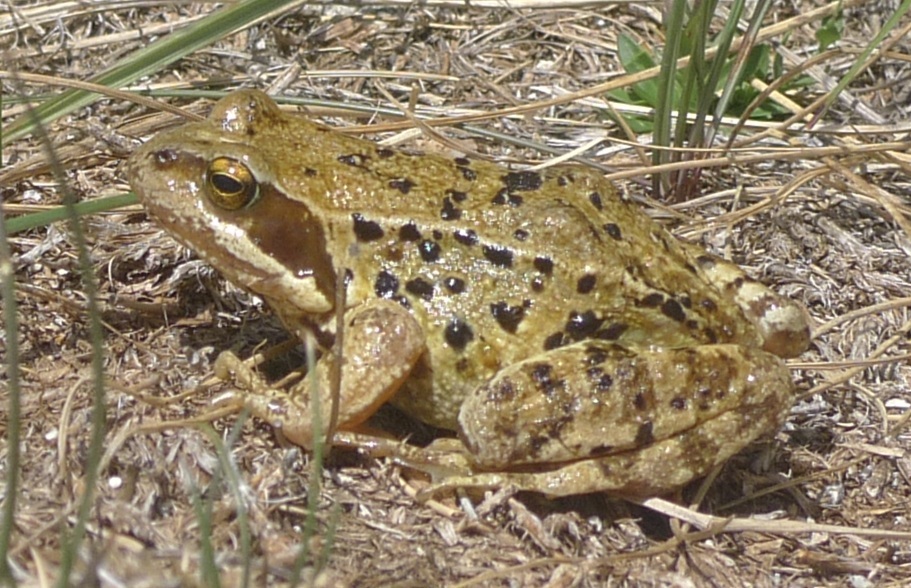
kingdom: Animalia
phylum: Chordata
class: Amphibia
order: Anura
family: Ranidae
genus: Rana
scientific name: Rana temporaria
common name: Common frog
